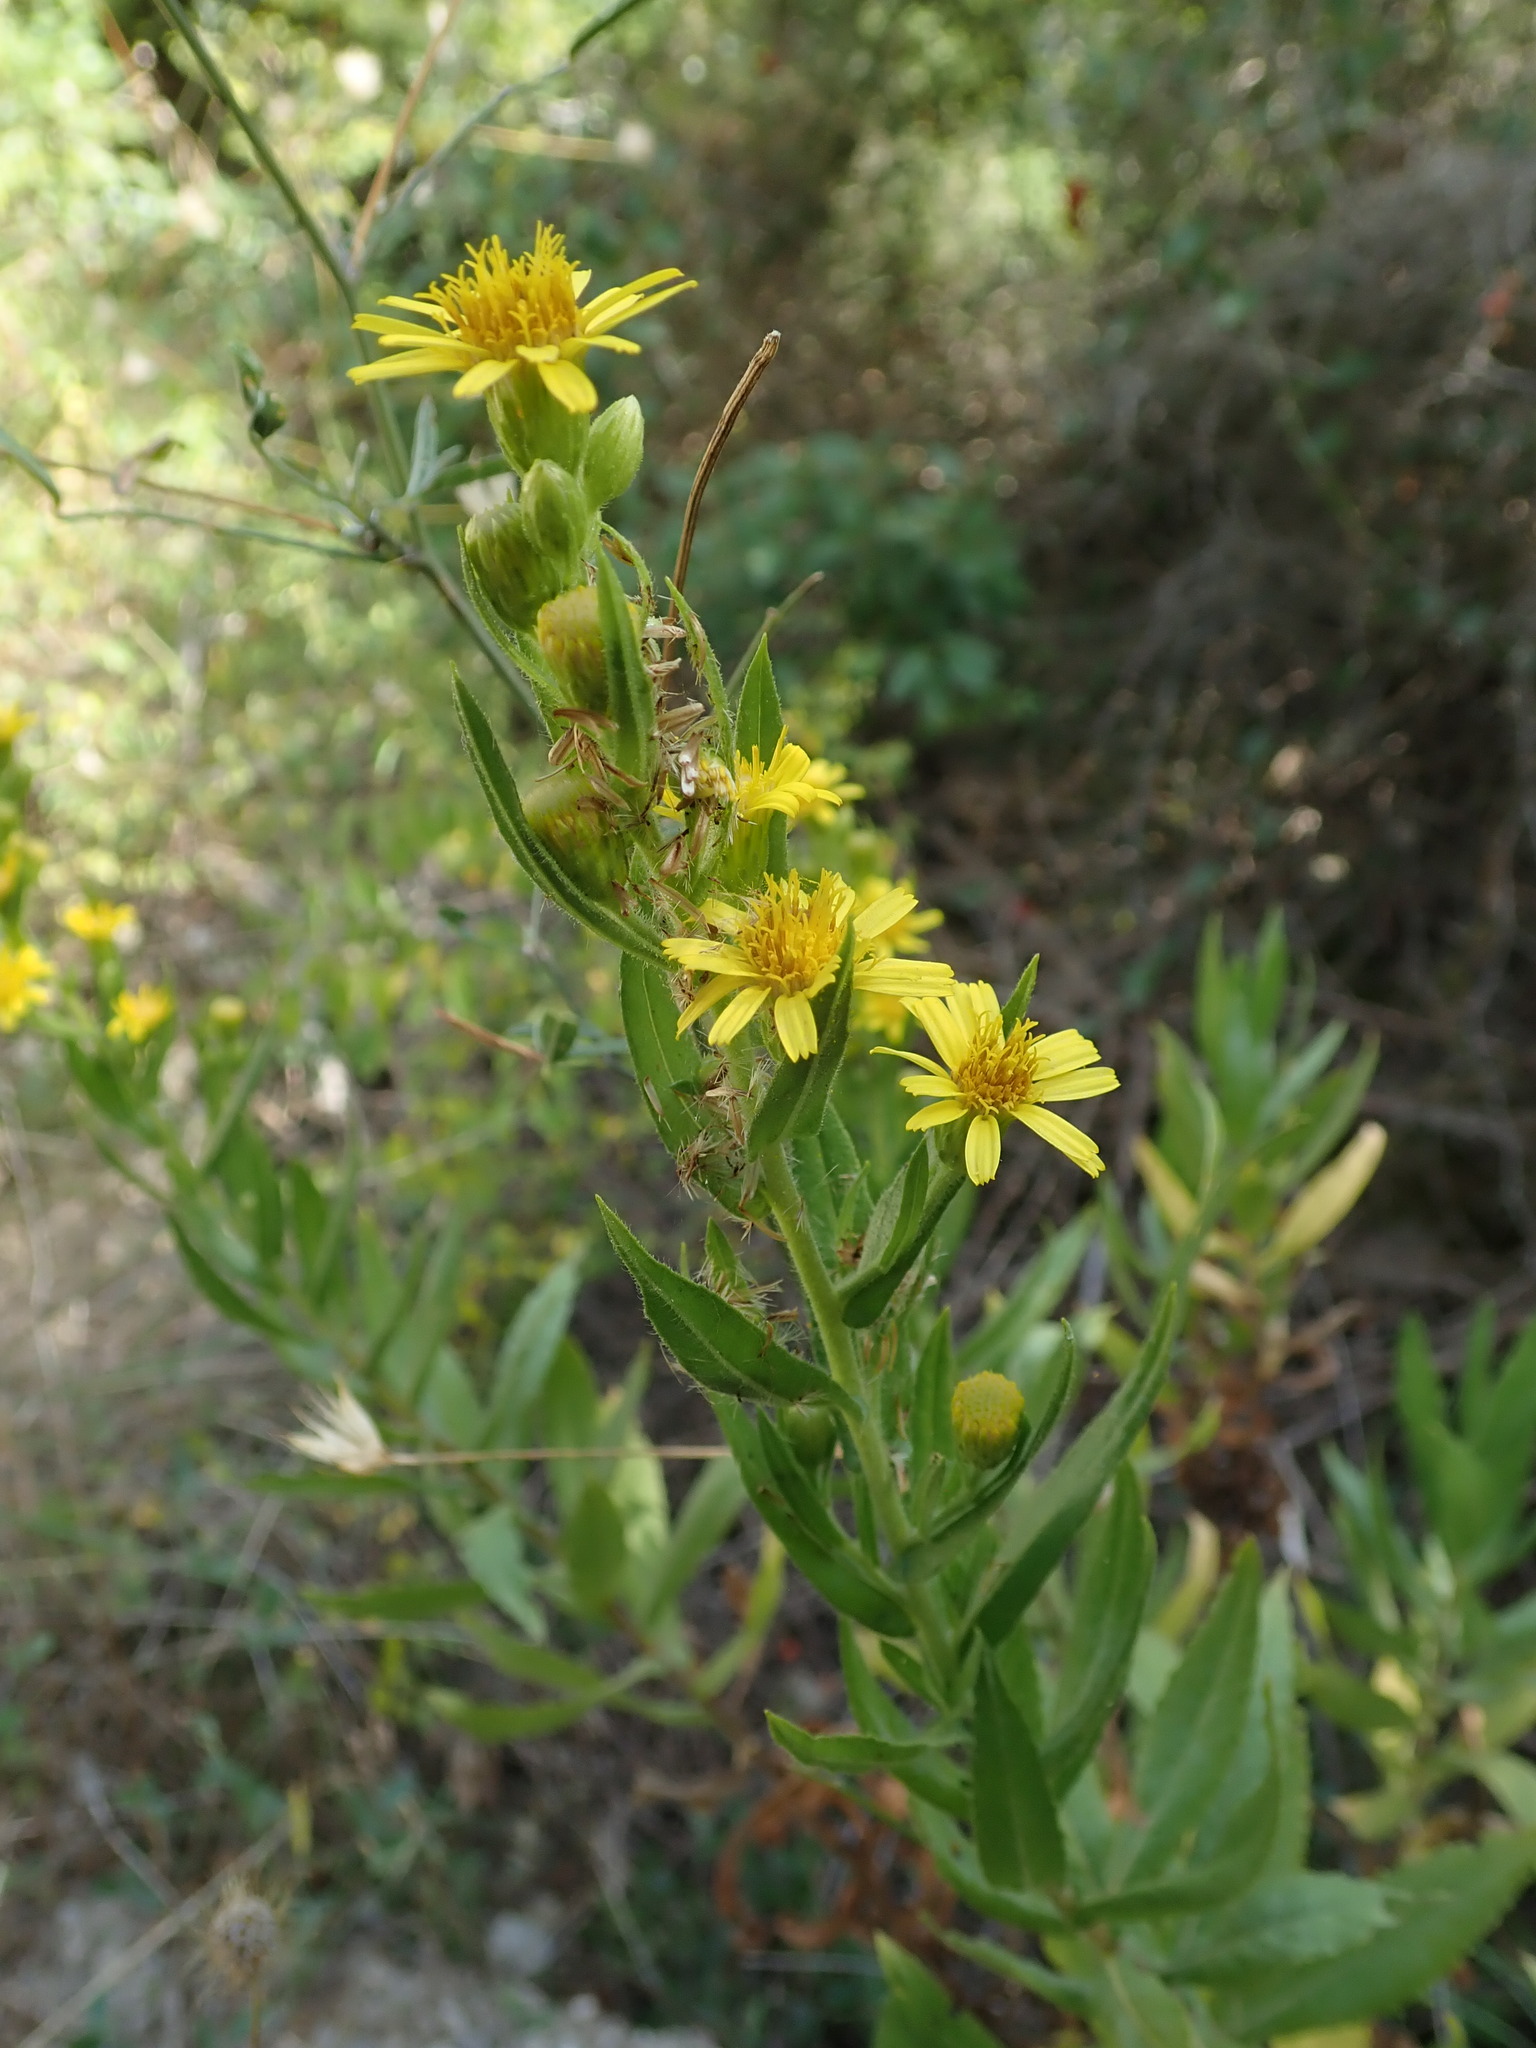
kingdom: Plantae
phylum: Tracheophyta
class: Magnoliopsida
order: Asterales
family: Asteraceae
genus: Dittrichia
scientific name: Dittrichia viscosa
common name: Woody fleabane
